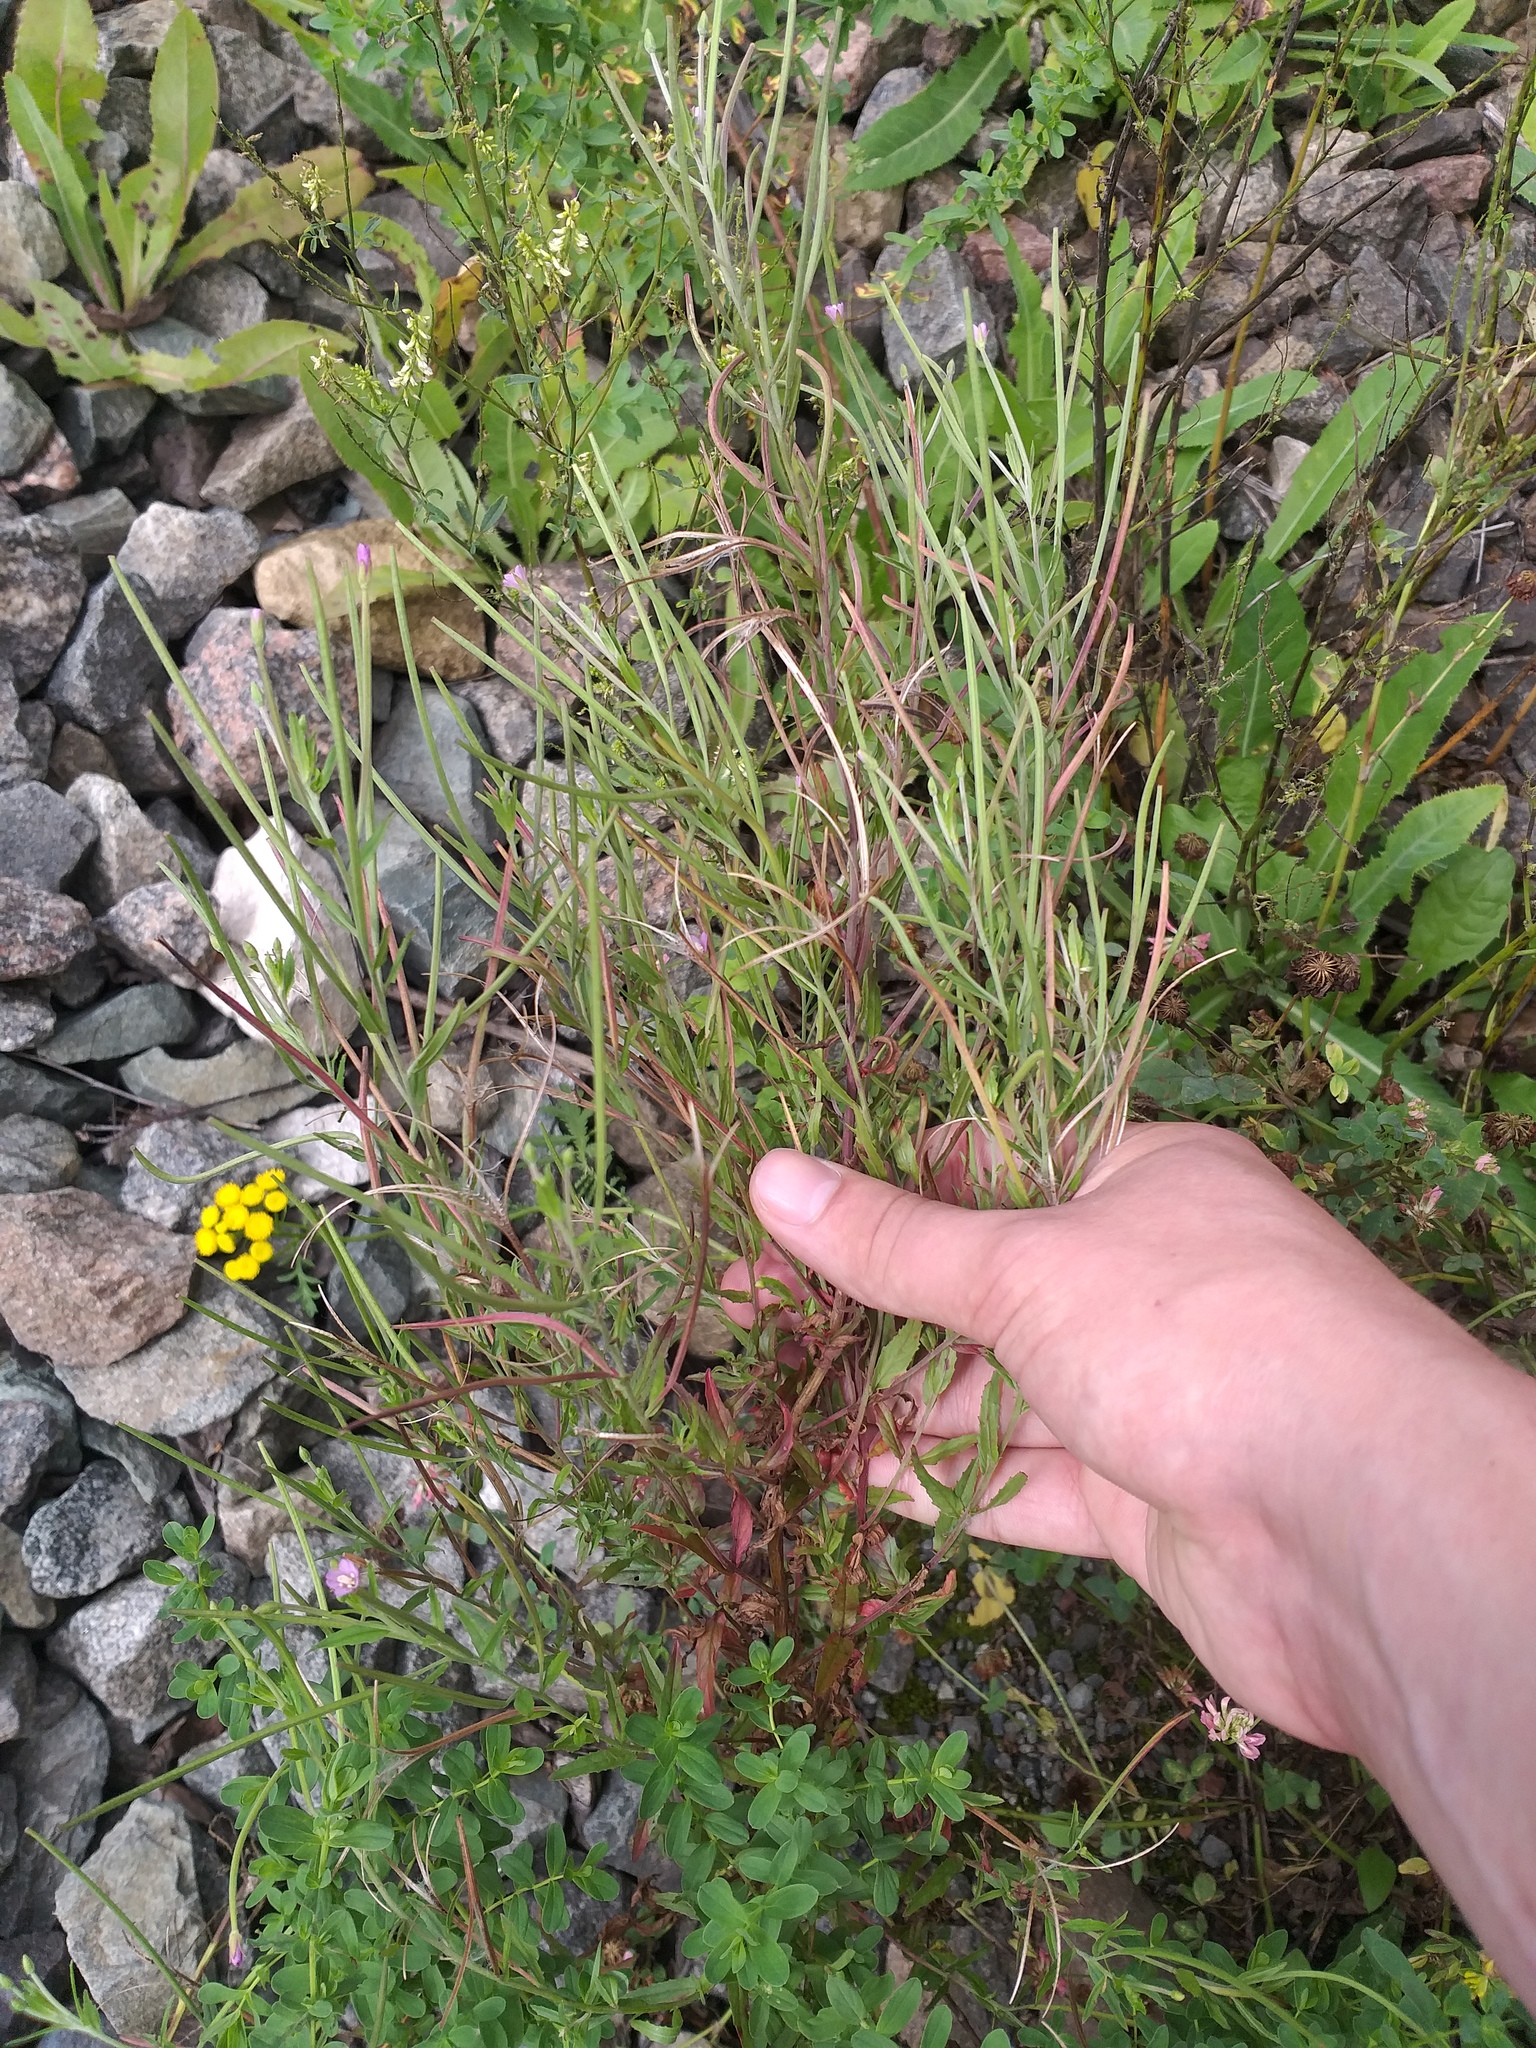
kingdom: Plantae
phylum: Tracheophyta
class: Magnoliopsida
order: Myrtales
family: Onagraceae
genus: Epilobium
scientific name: Epilobium tetragonum
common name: Square-stemmed willowherb
